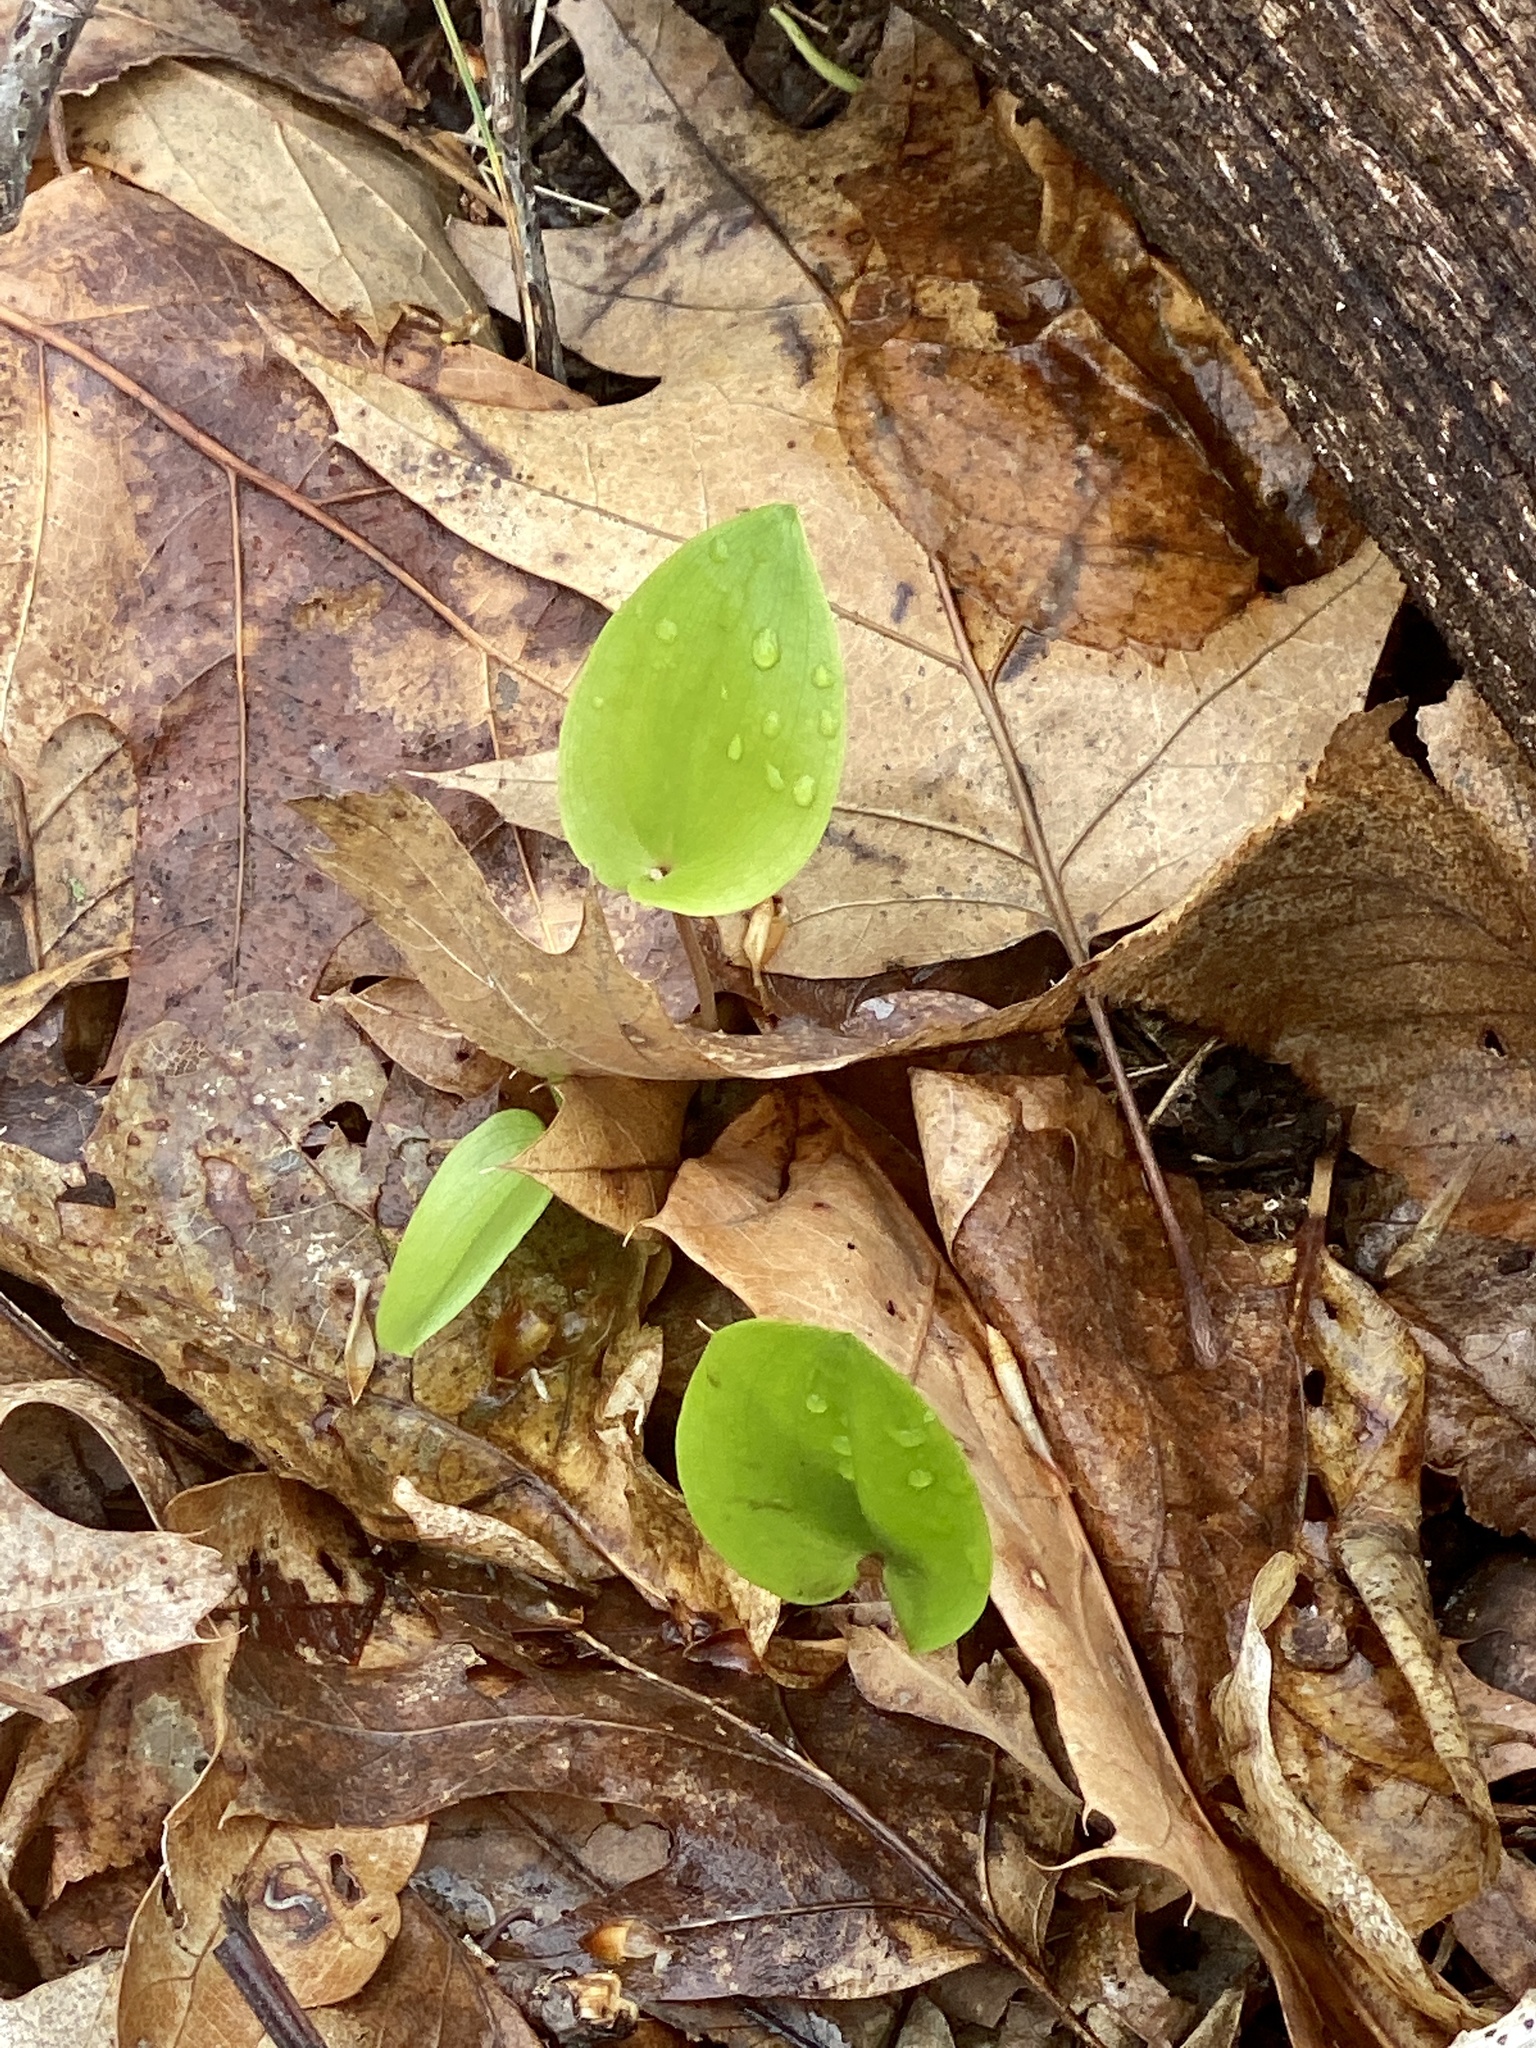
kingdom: Plantae
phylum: Tracheophyta
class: Liliopsida
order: Asparagales
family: Asparagaceae
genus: Maianthemum
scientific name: Maianthemum canadense
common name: False lily-of-the-valley
